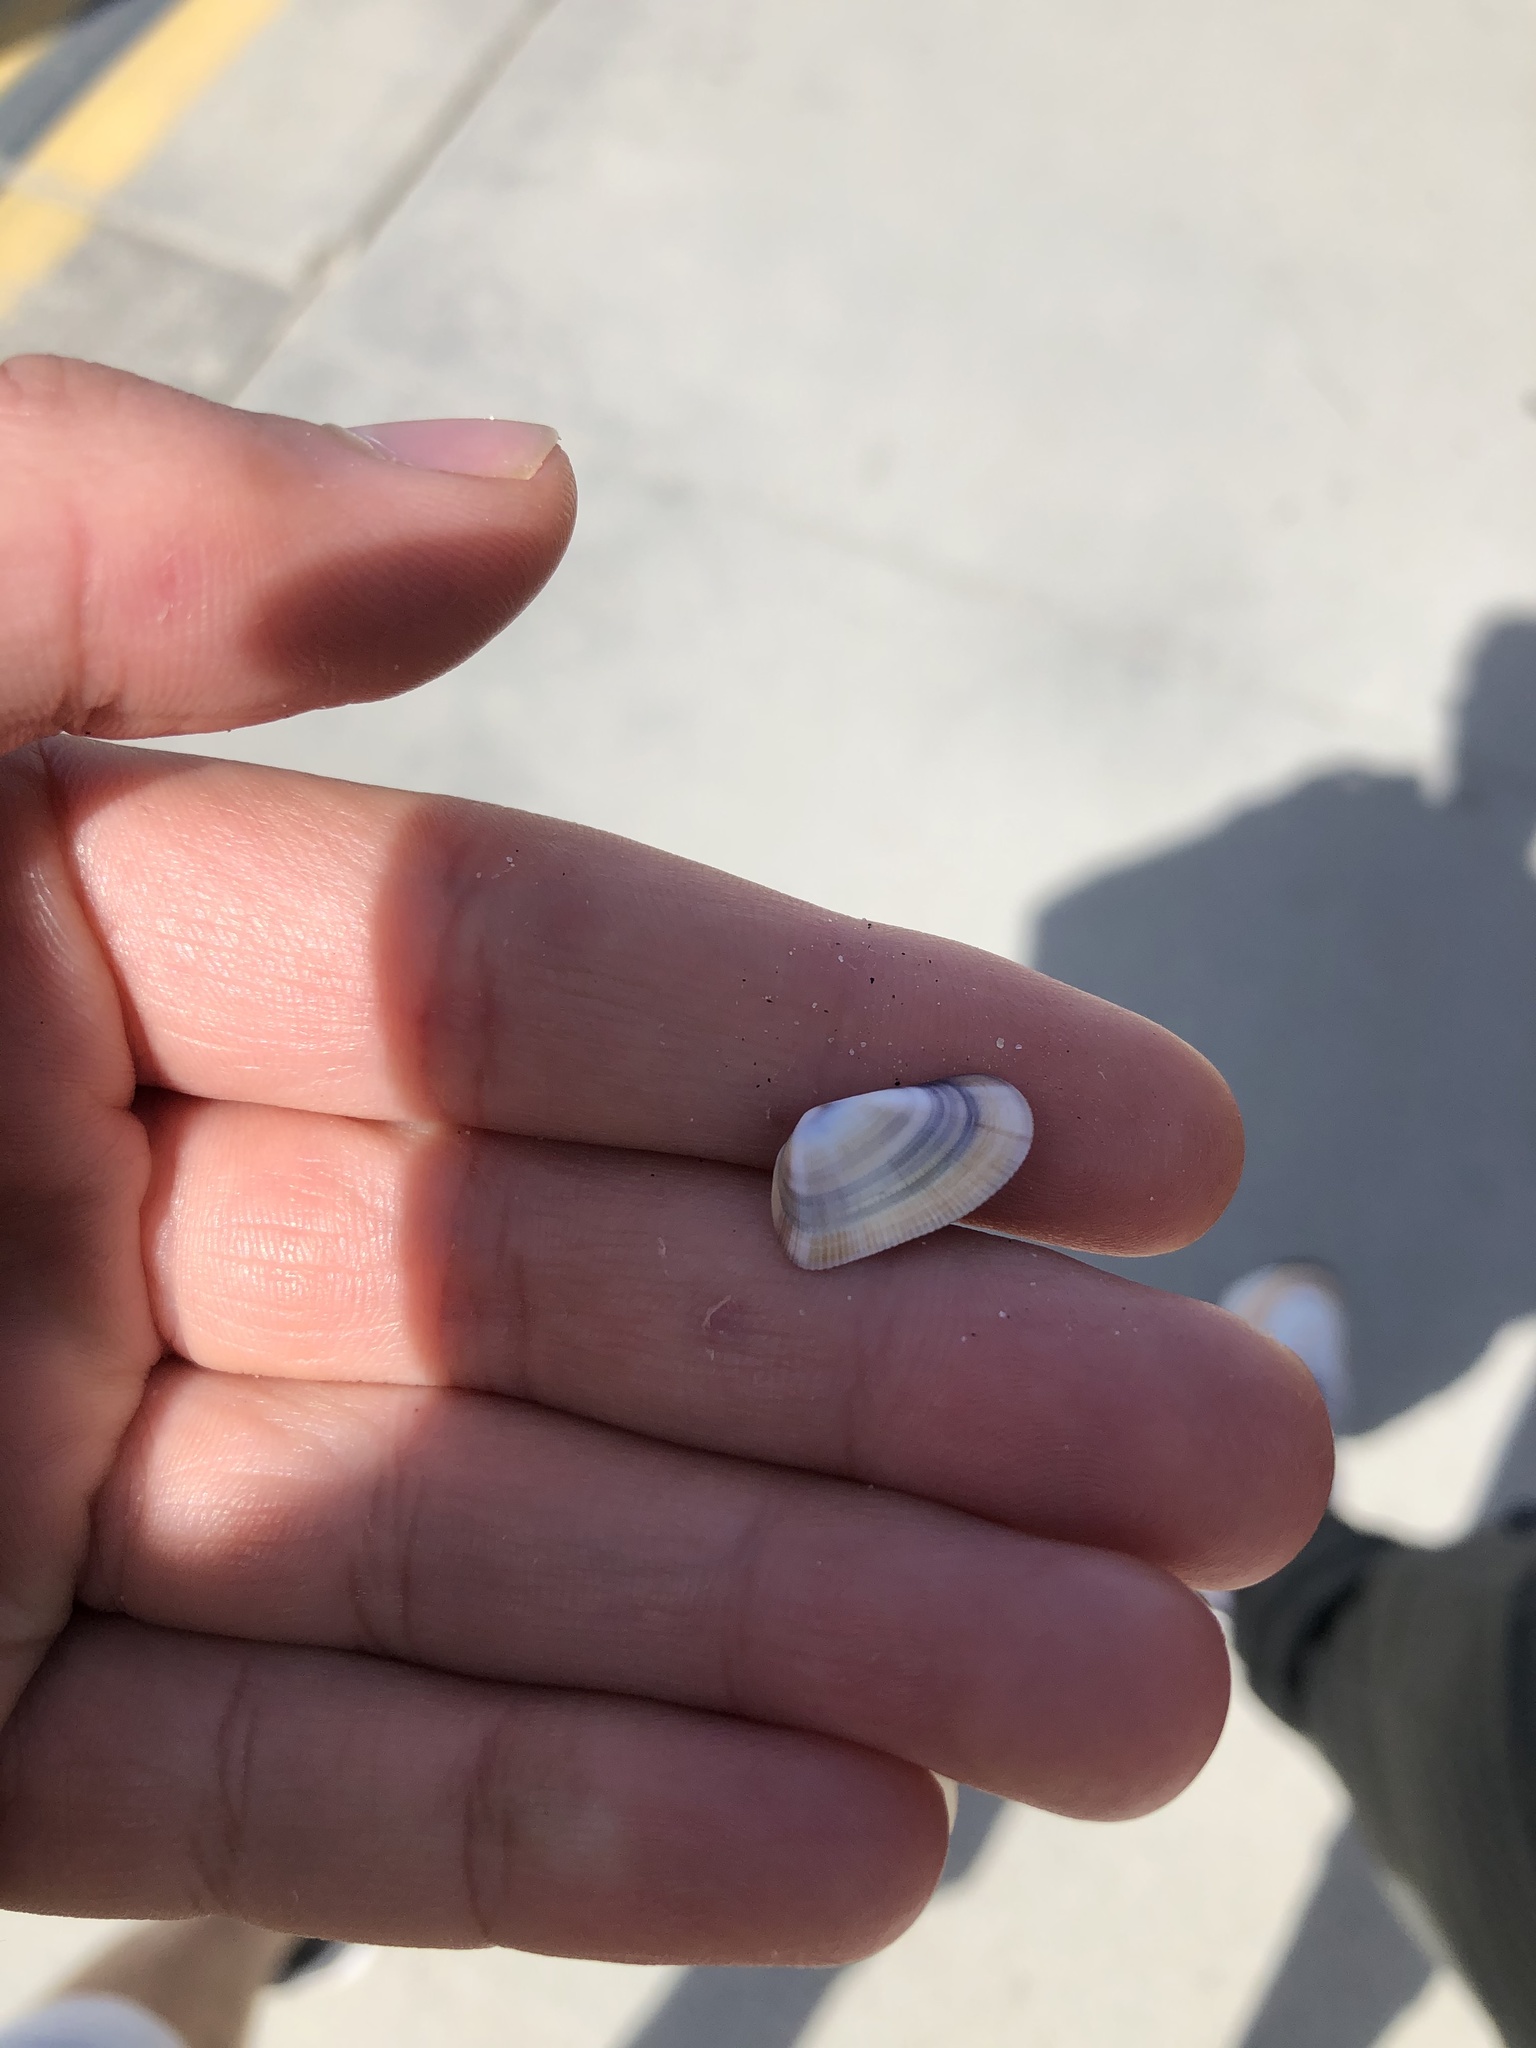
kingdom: Animalia
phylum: Mollusca
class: Bivalvia
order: Cardiida
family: Donacidae
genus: Donax
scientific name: Donax gouldii
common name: Gould beanclam
